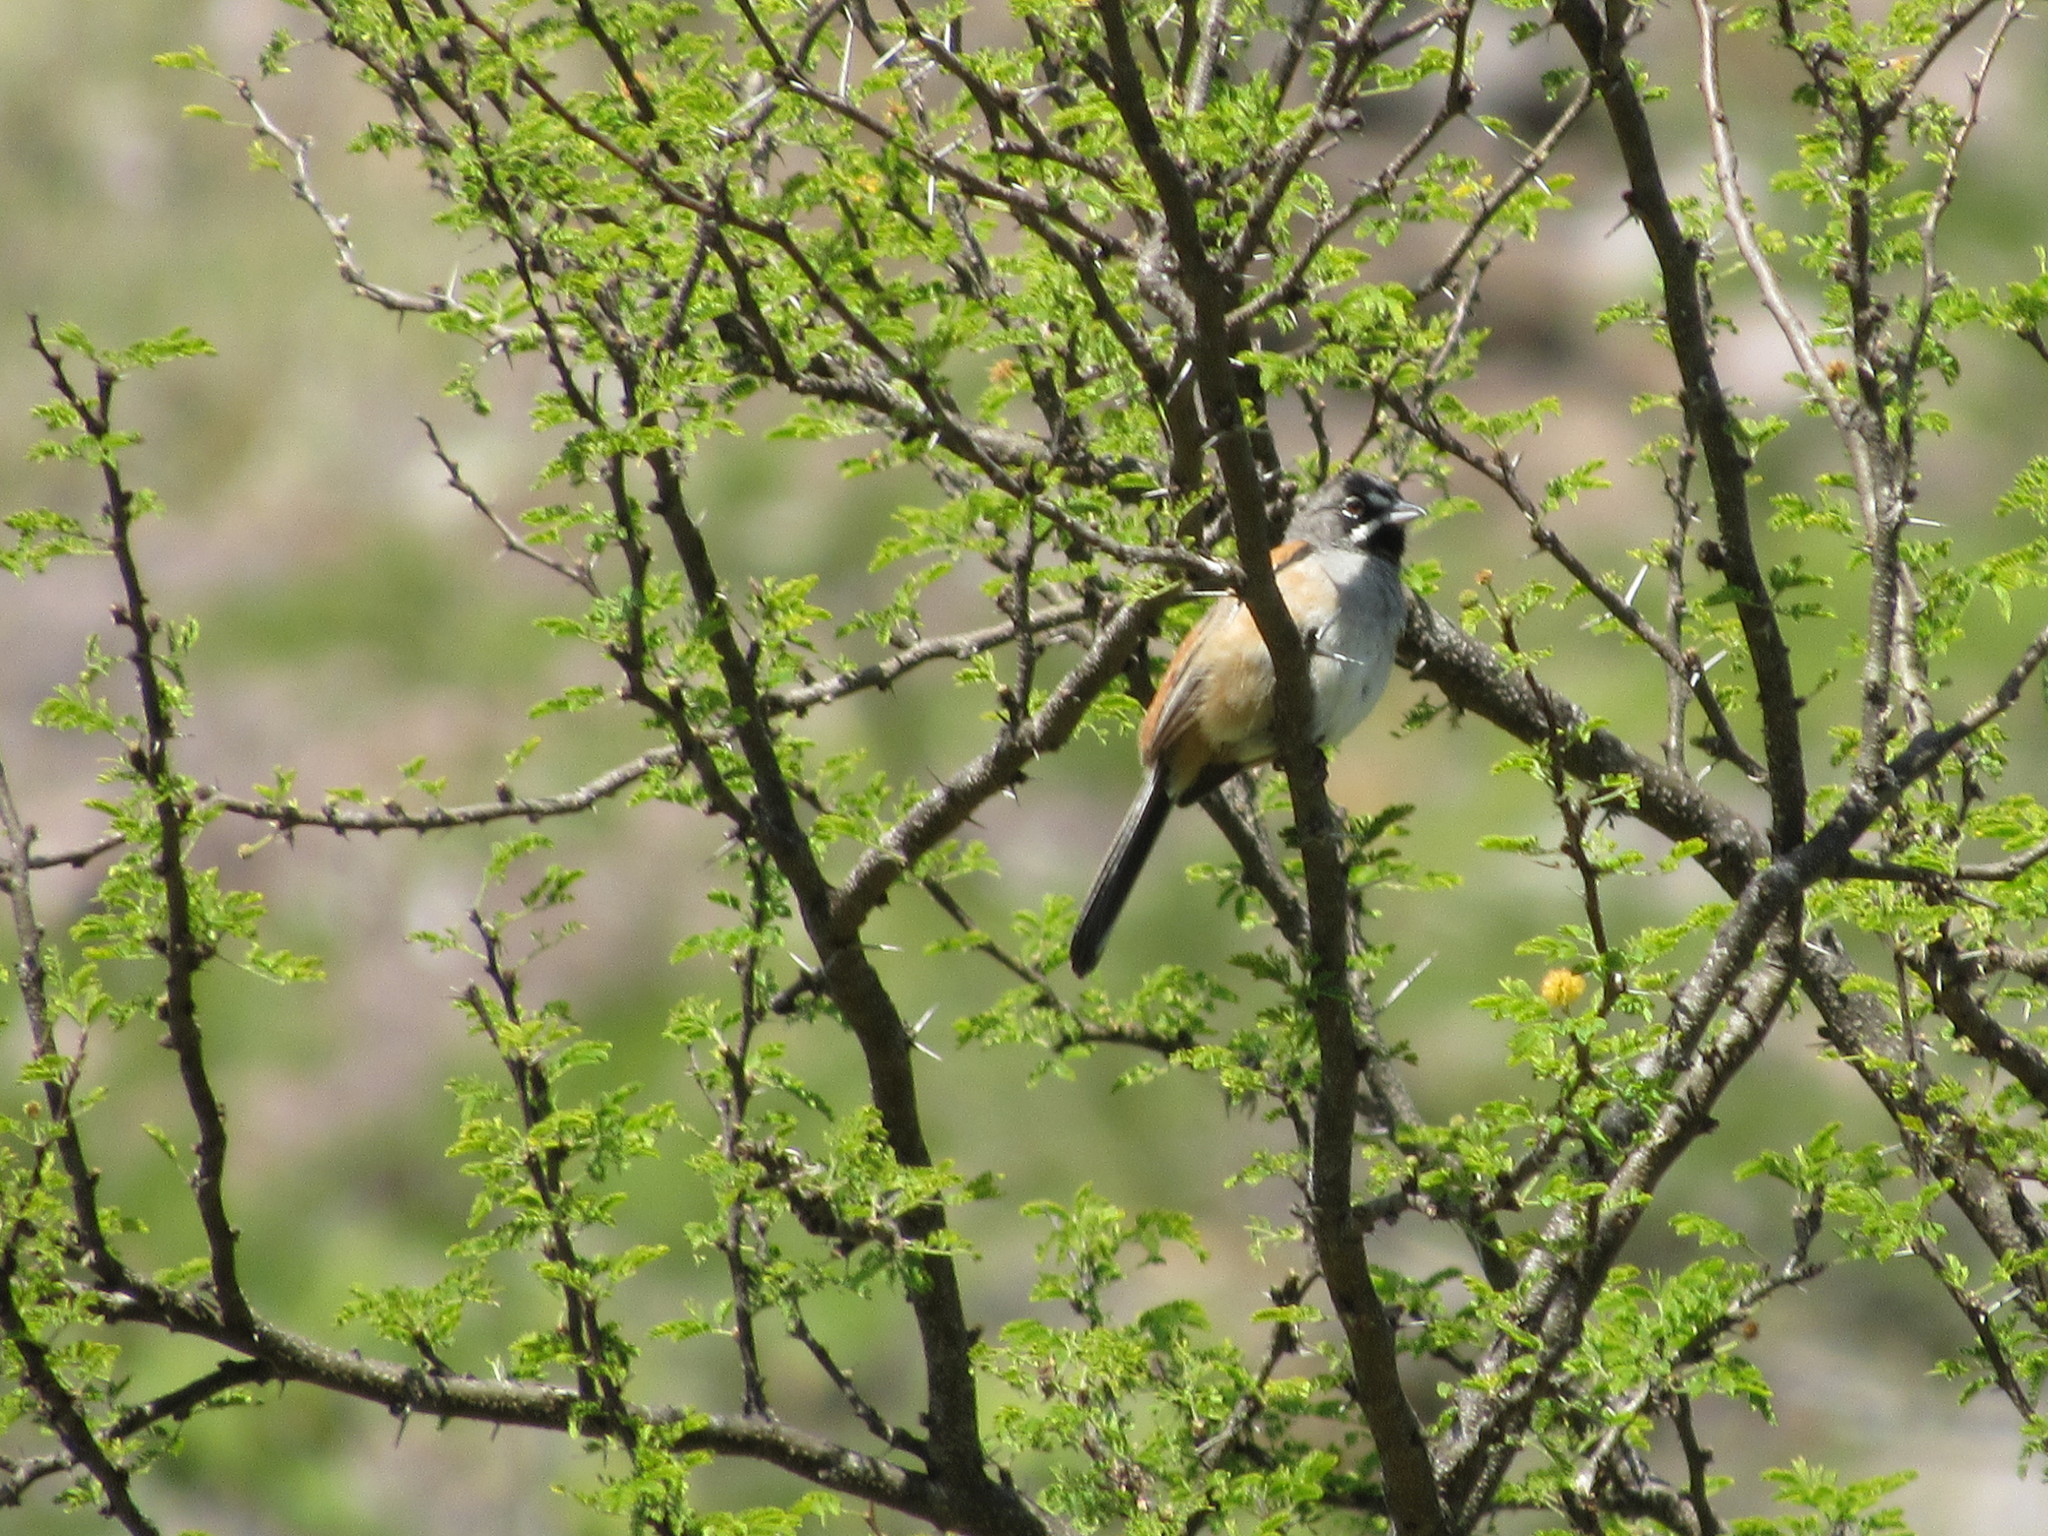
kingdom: Animalia
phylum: Chordata
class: Aves
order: Passeriformes
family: Passerellidae
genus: Peucaea
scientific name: Peucaea mystacalis
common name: Bridled sparrow
